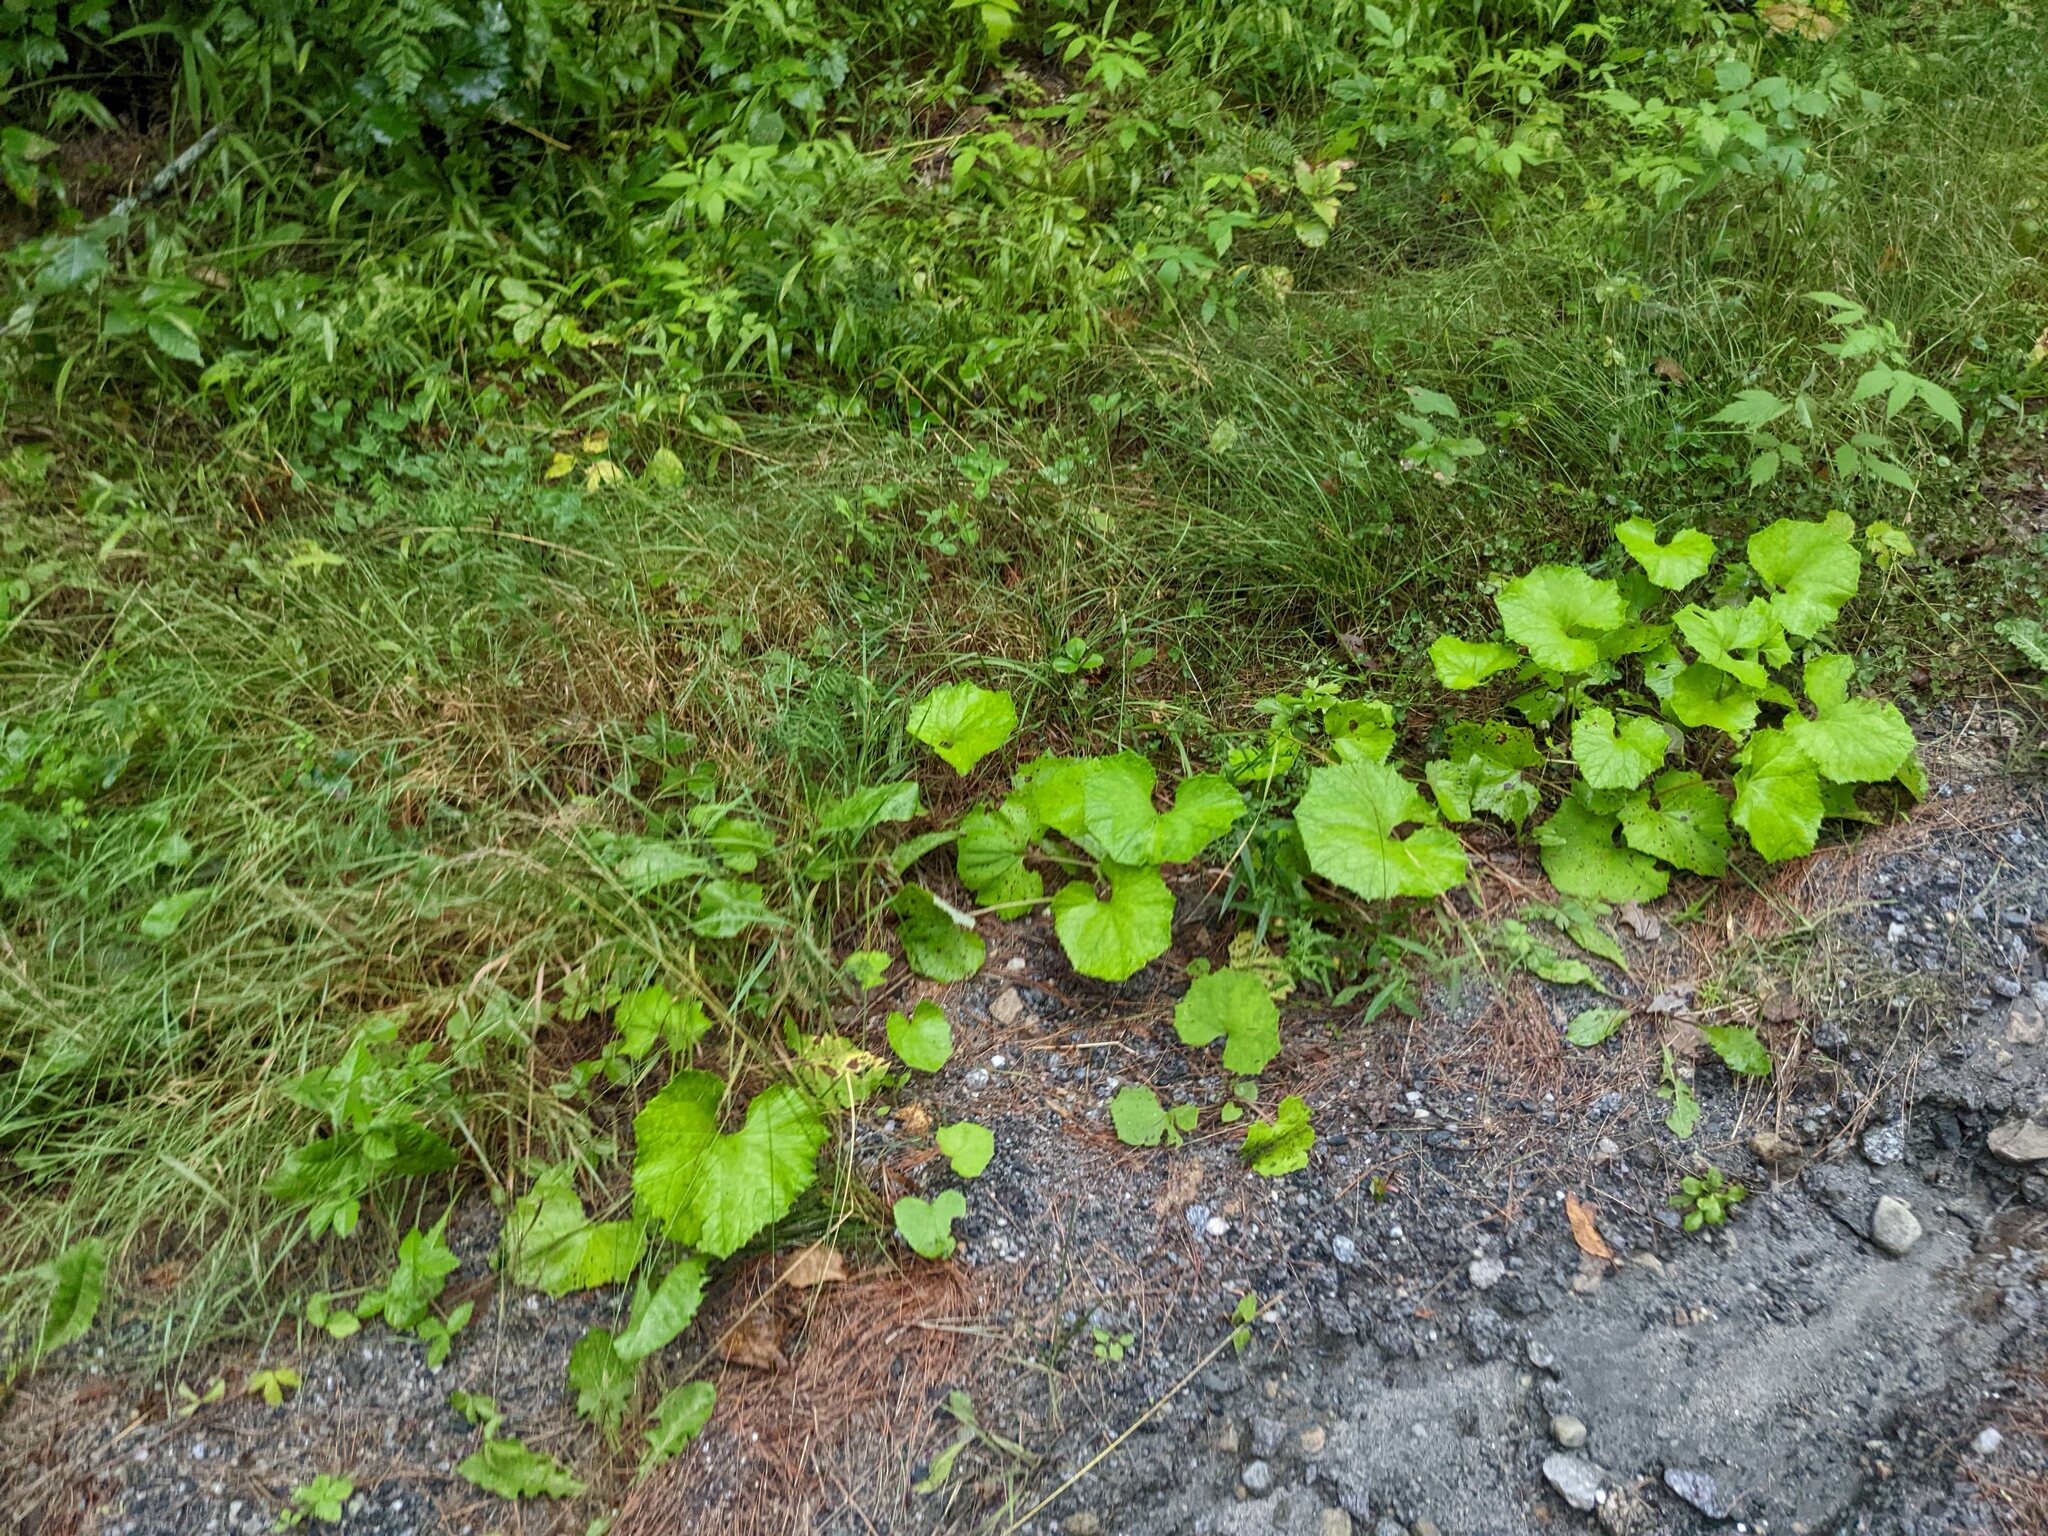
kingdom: Plantae
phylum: Tracheophyta
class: Magnoliopsida
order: Asterales
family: Asteraceae
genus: Tussilago
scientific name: Tussilago farfara
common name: Coltsfoot
